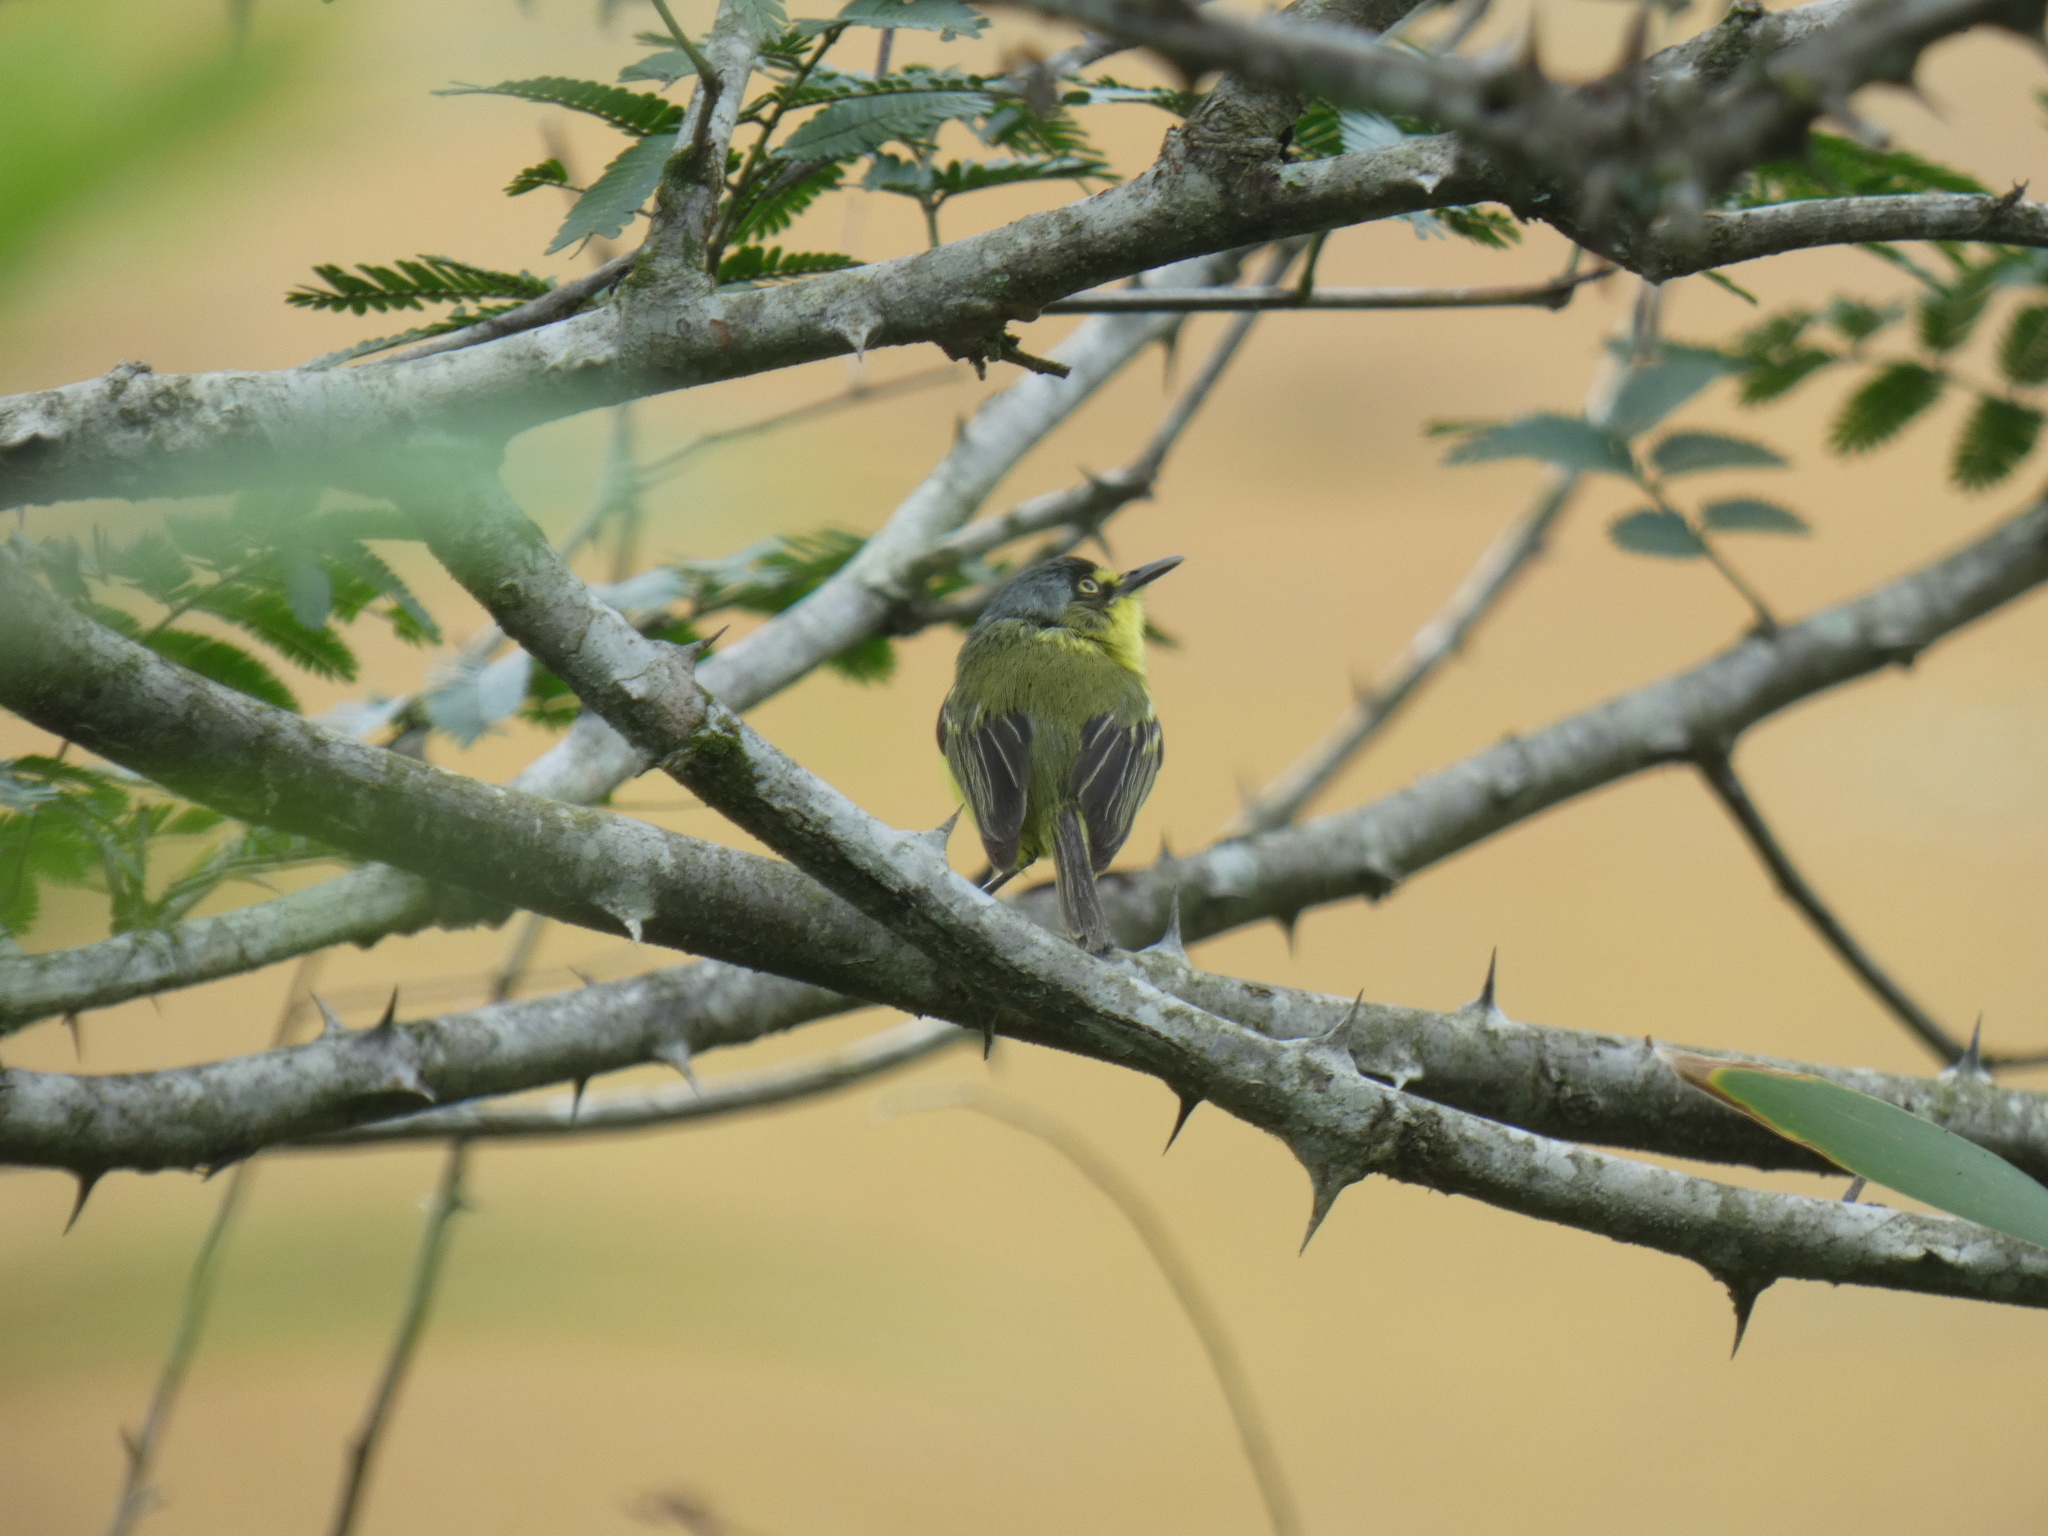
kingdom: Animalia
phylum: Chordata
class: Aves
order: Passeriformes
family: Tyrannidae
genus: Todirostrum
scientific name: Todirostrum poliocephalum
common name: Yellow-lored tody-flycatcher
